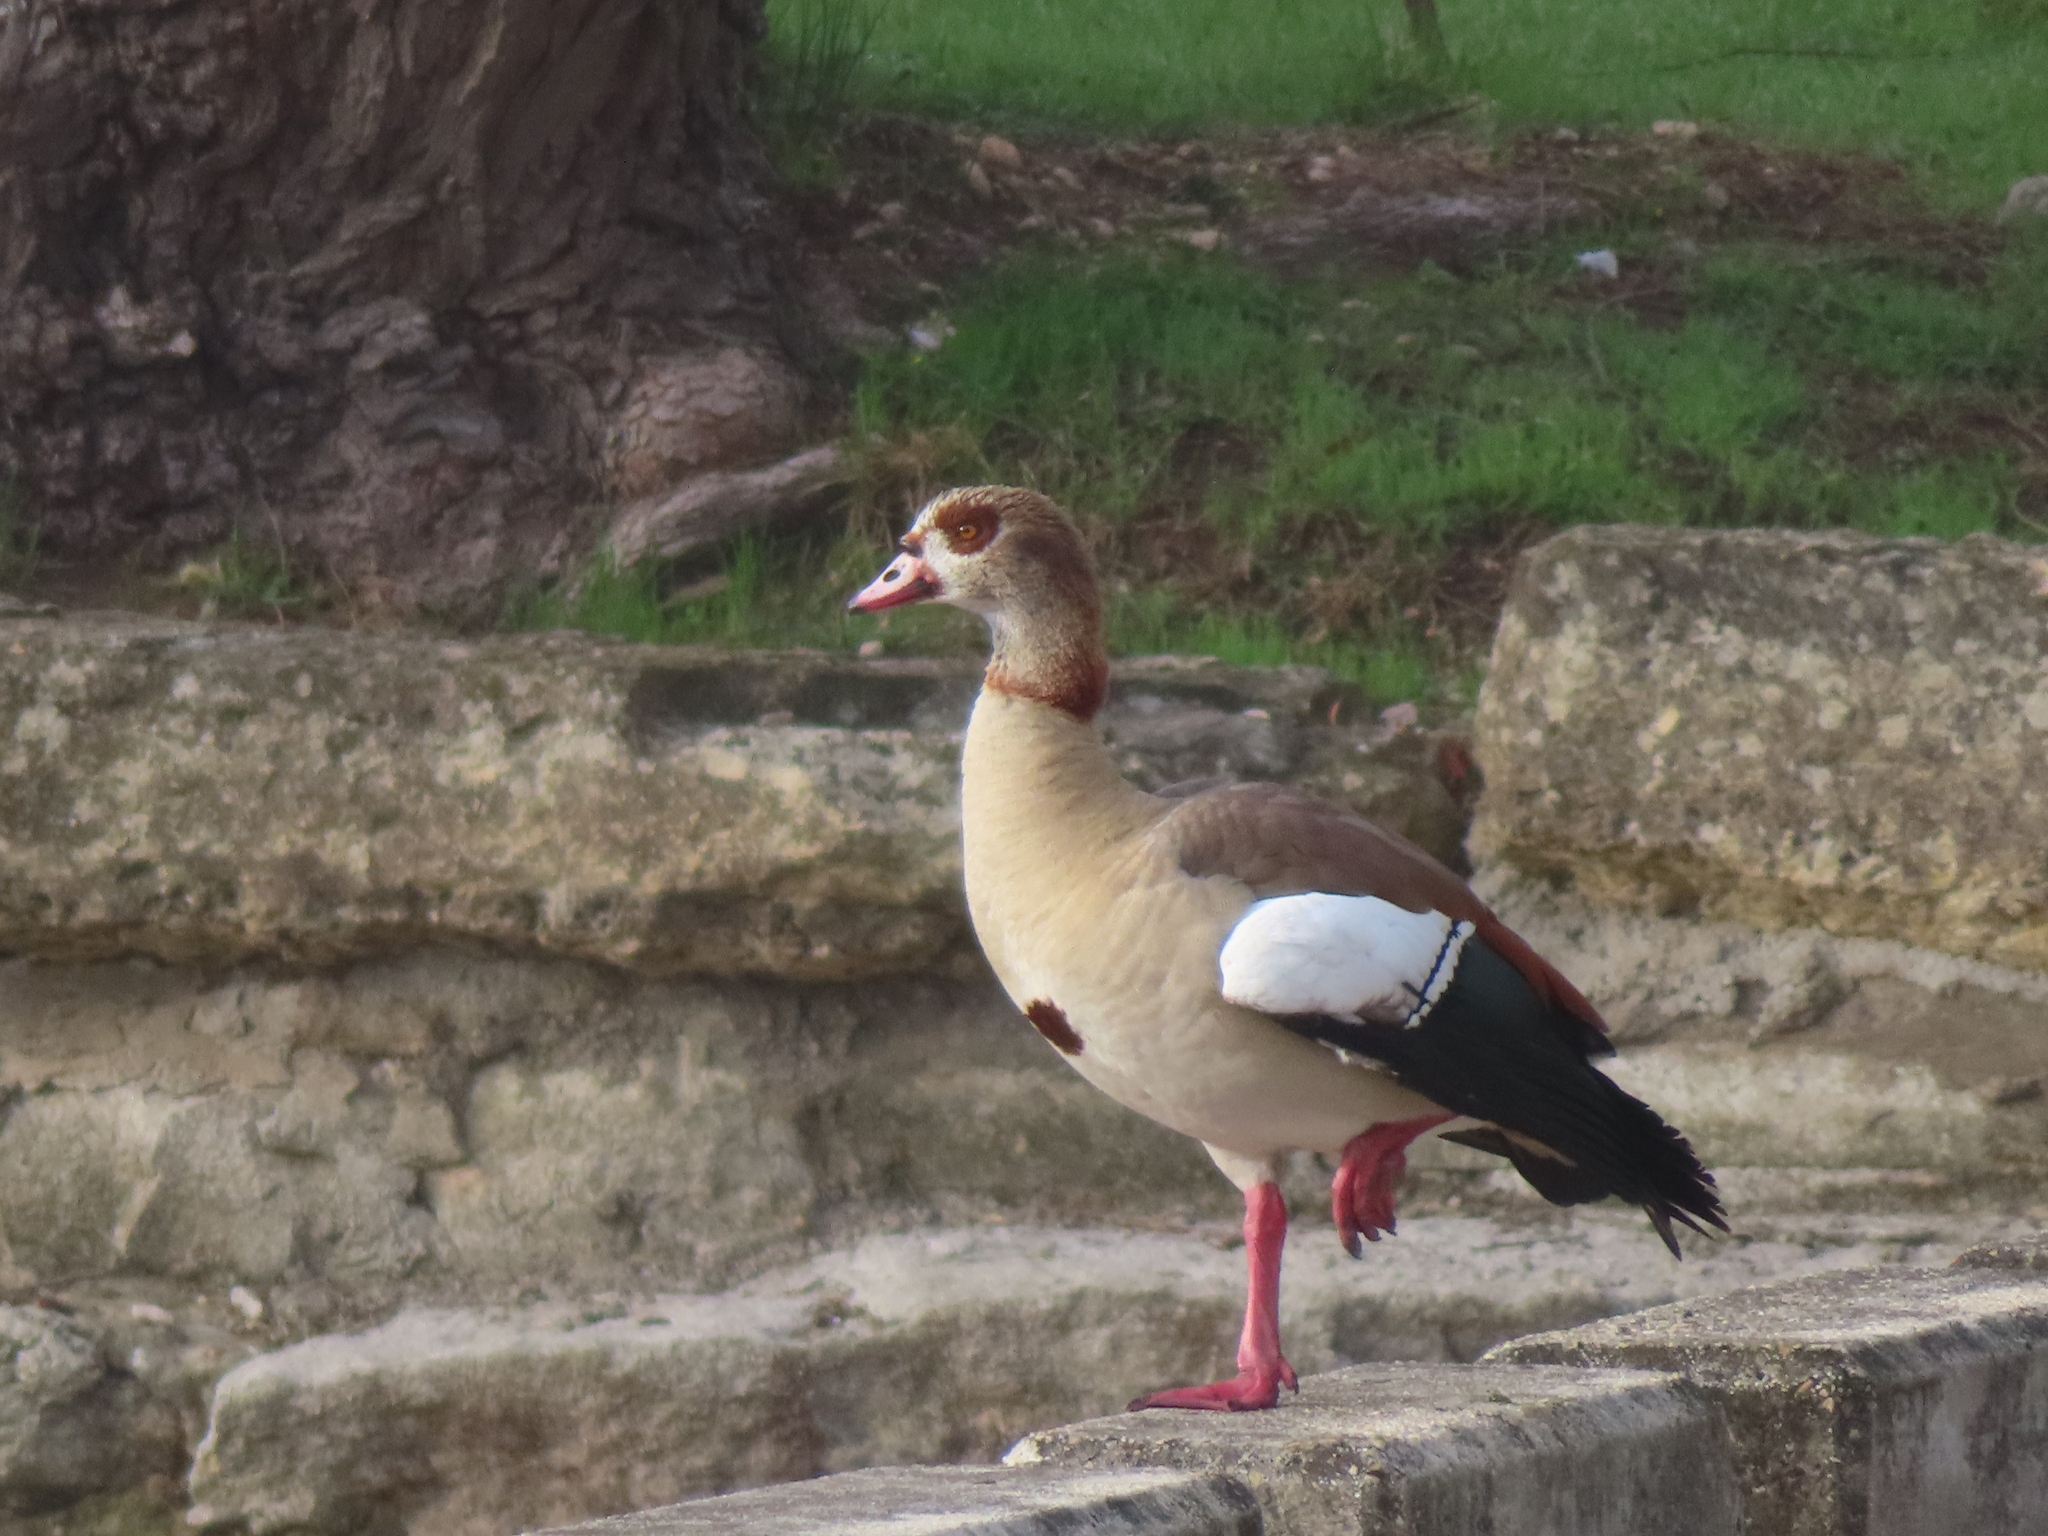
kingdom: Animalia
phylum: Chordata
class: Aves
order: Anseriformes
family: Anatidae
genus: Alopochen
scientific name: Alopochen aegyptiaca
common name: Egyptian goose
